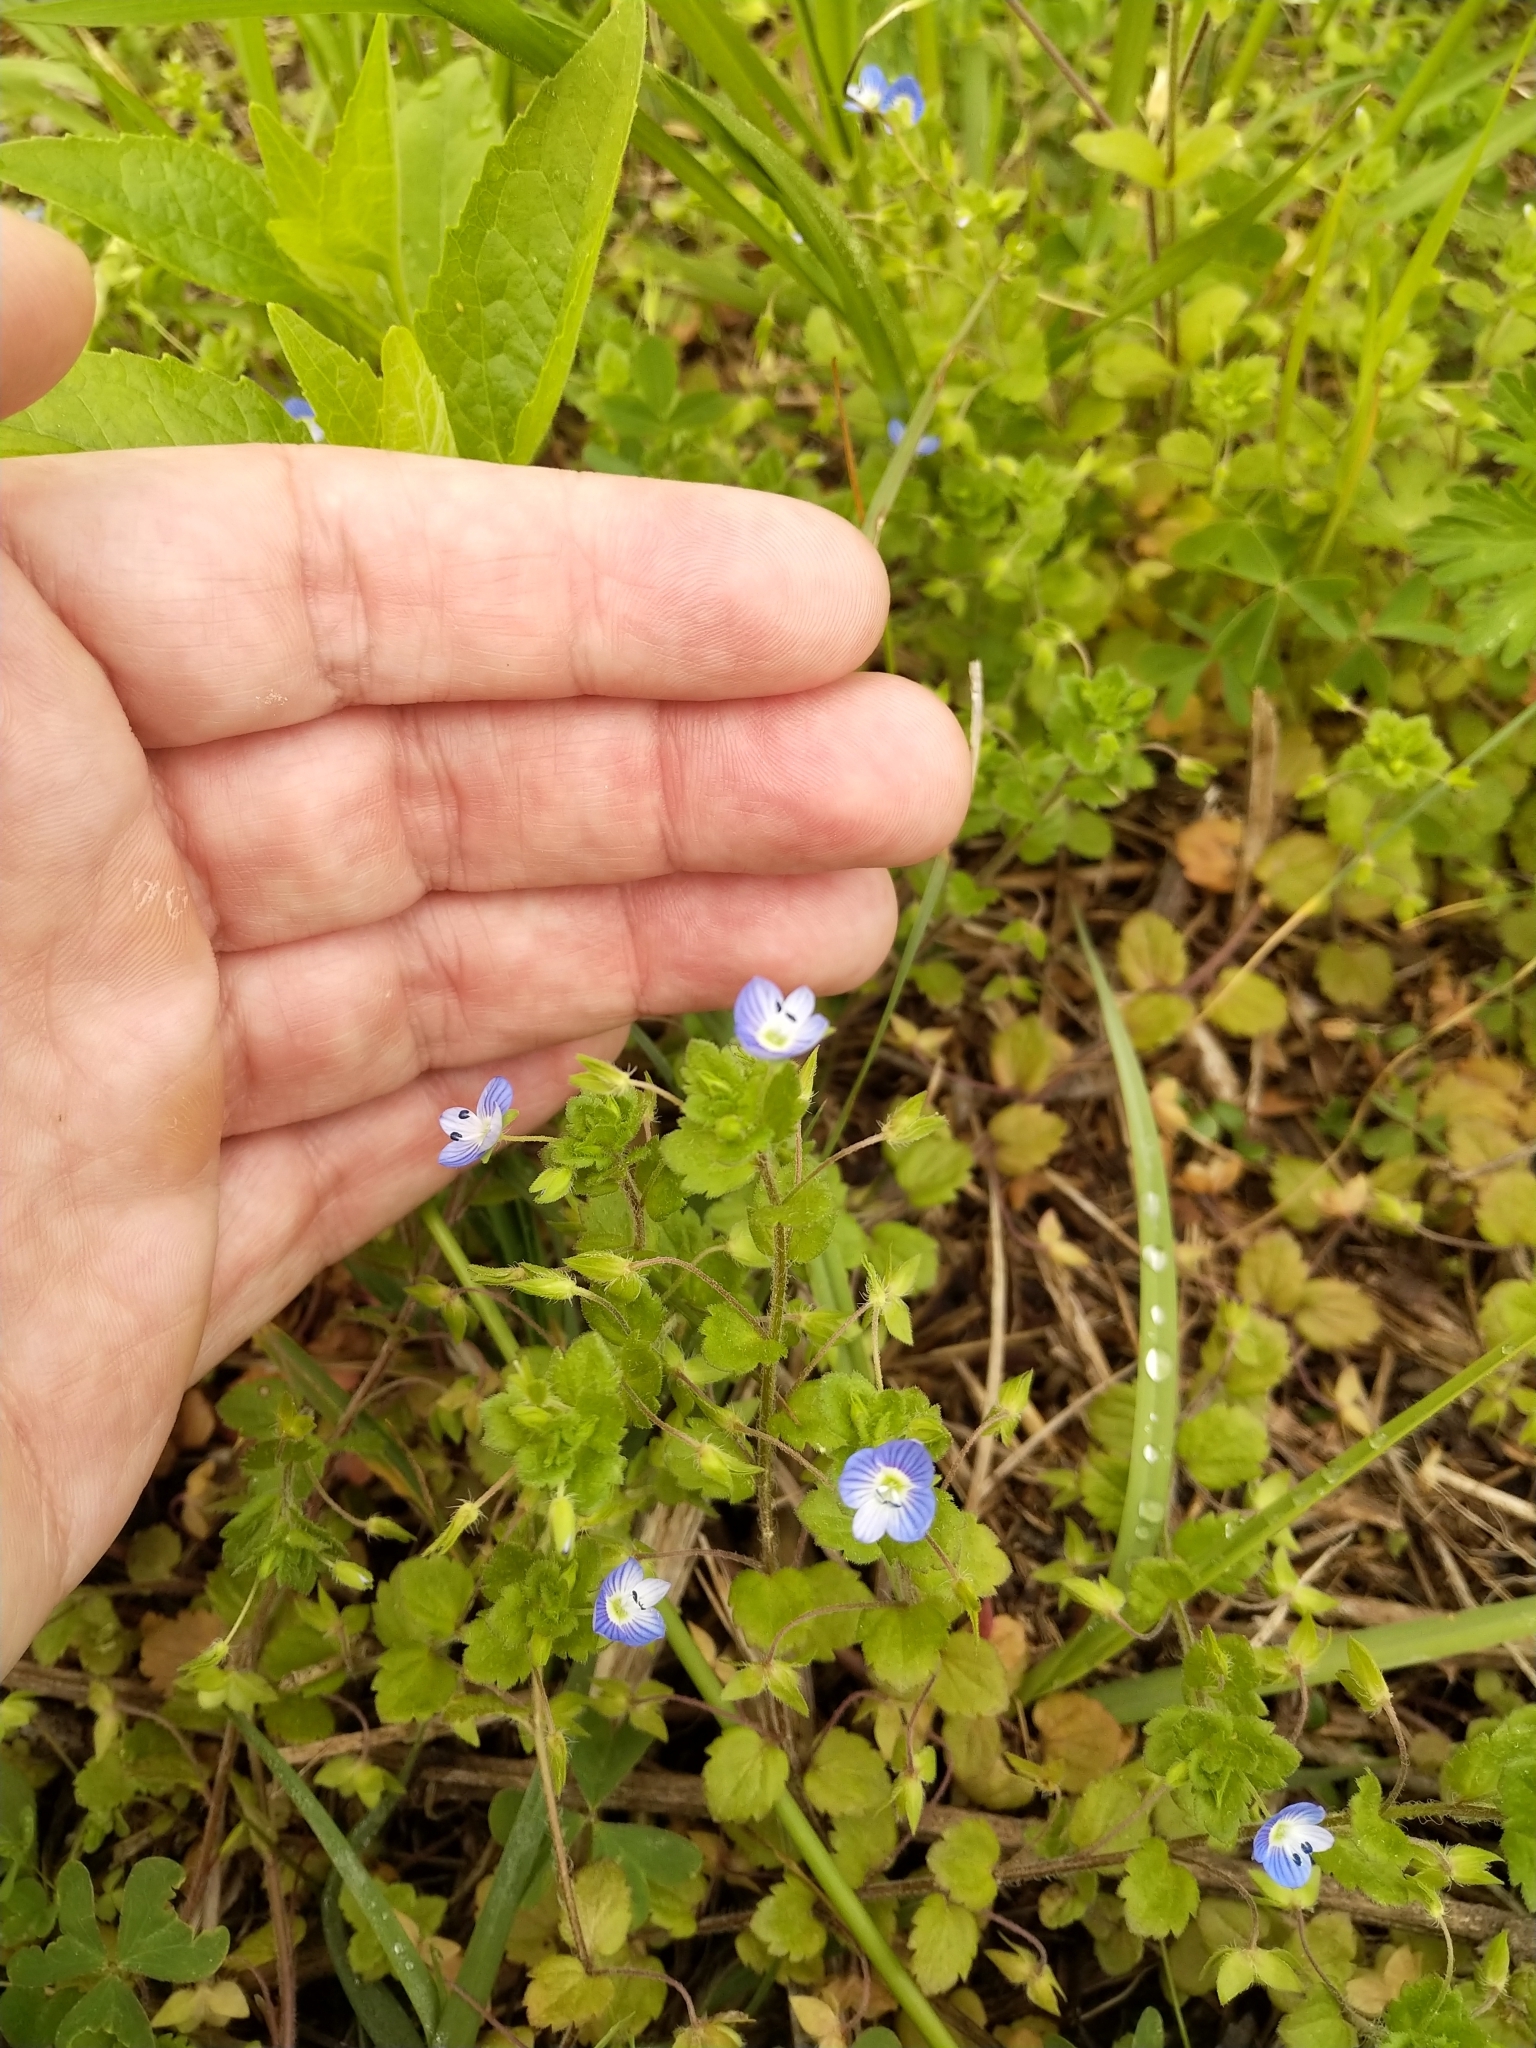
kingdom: Plantae
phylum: Tracheophyta
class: Magnoliopsida
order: Lamiales
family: Plantaginaceae
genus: Veronica
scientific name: Veronica persica
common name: Common field-speedwell
